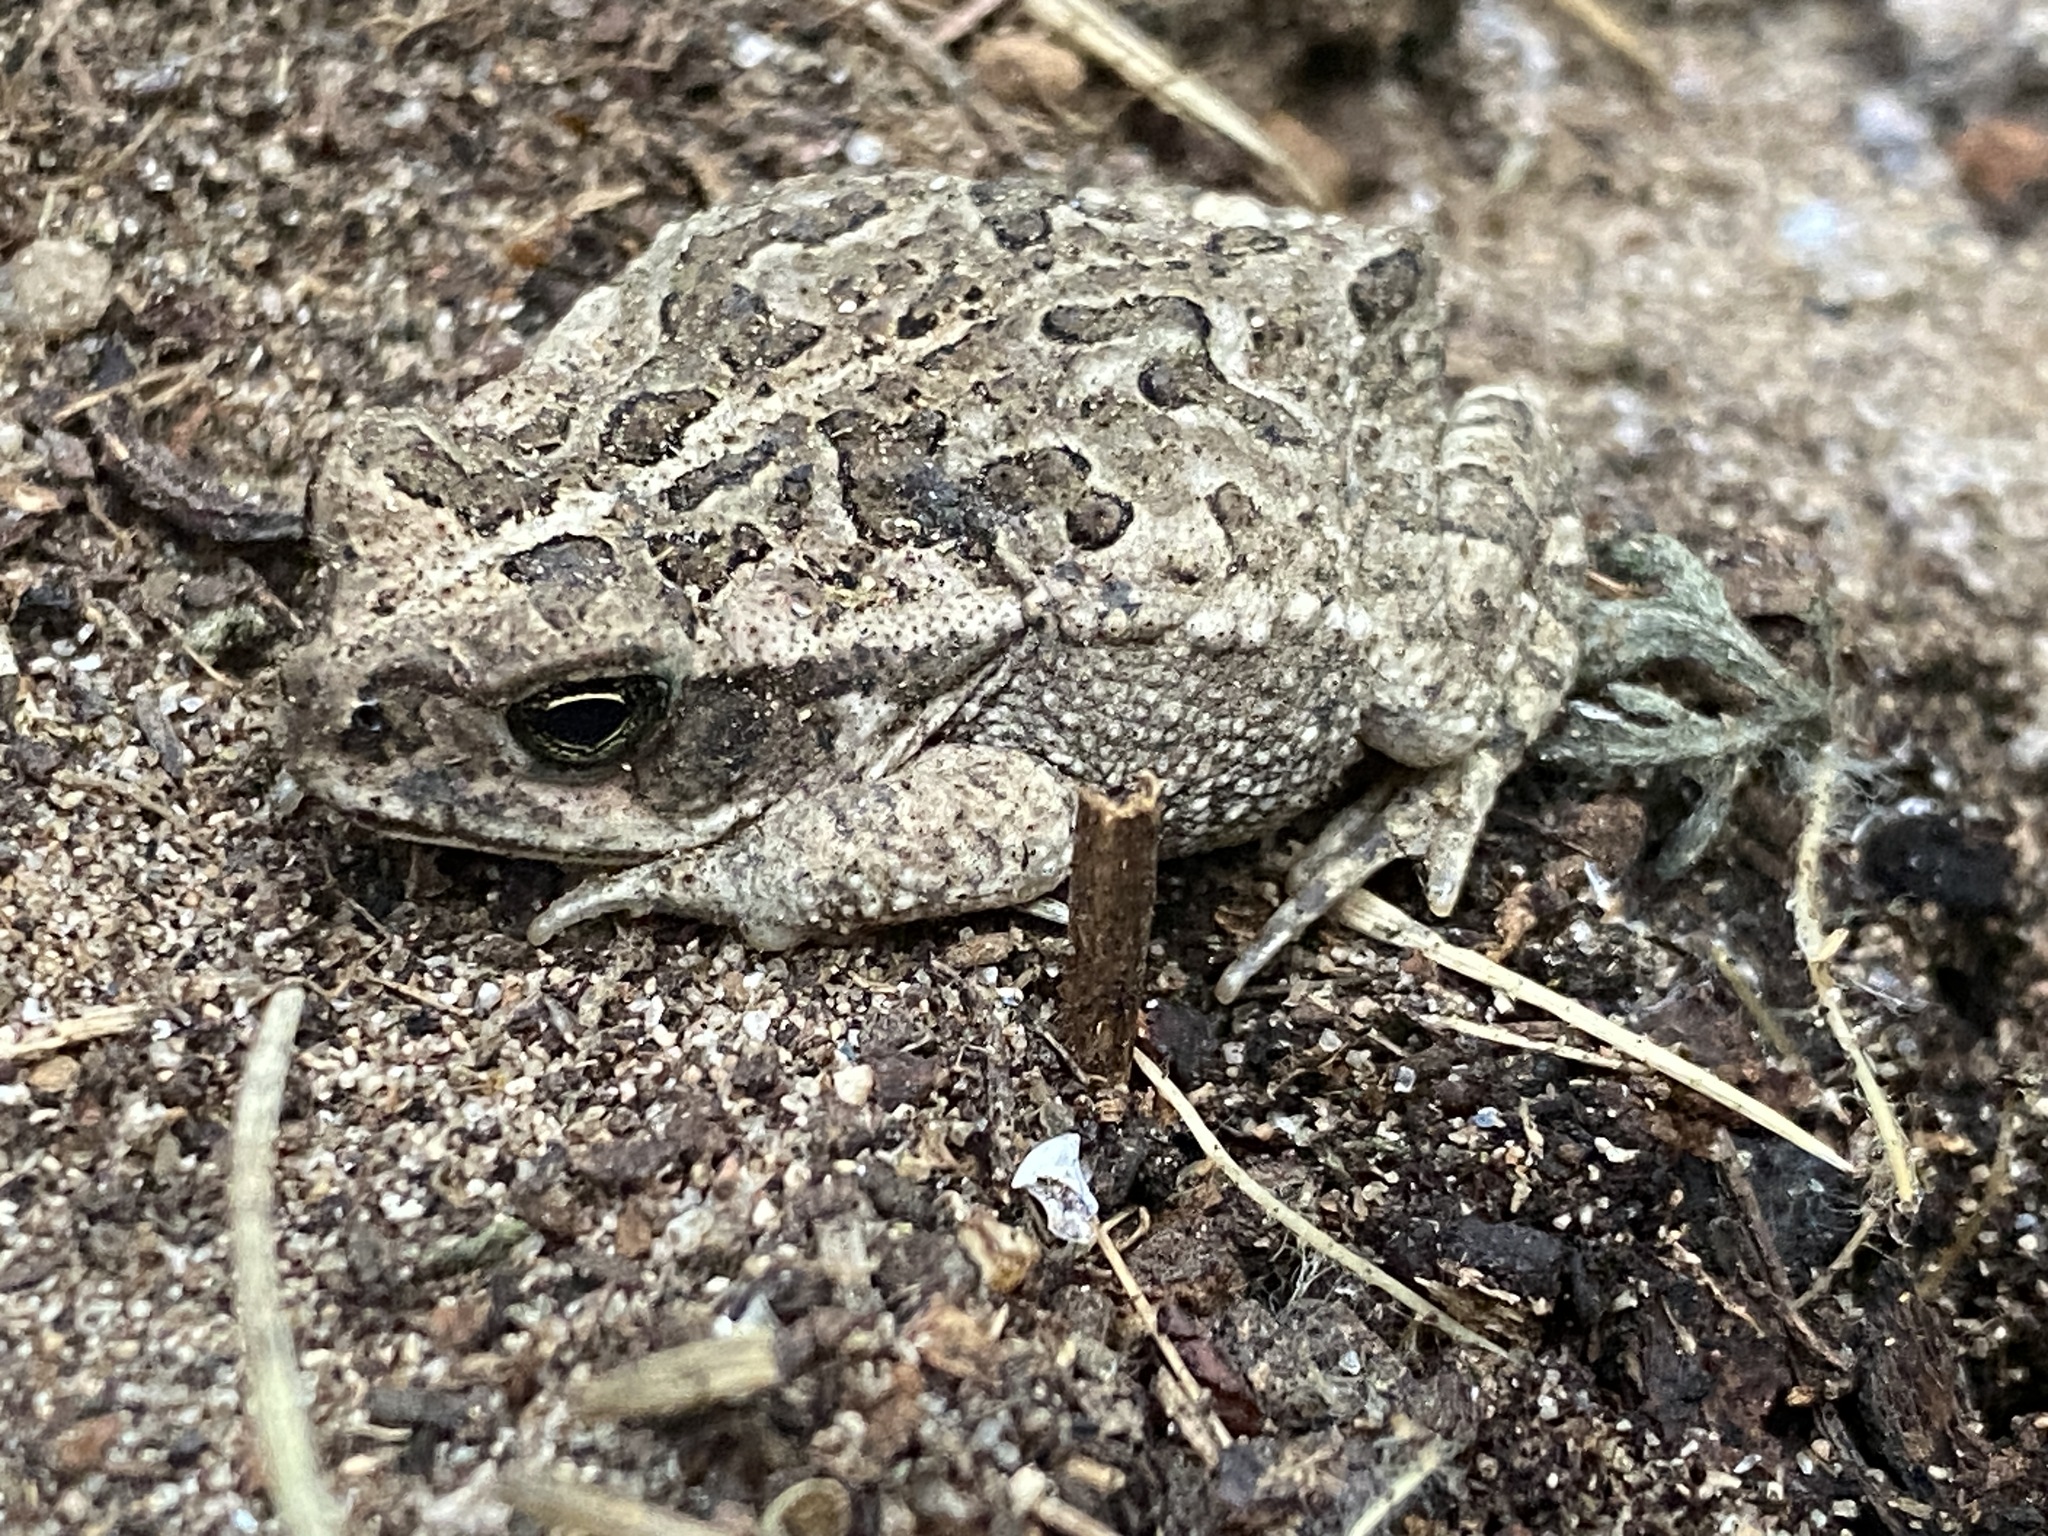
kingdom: Animalia
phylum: Chordata
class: Amphibia
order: Anura
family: Bufonidae
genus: Rhinella
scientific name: Rhinella diptycha
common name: Cope's toad
